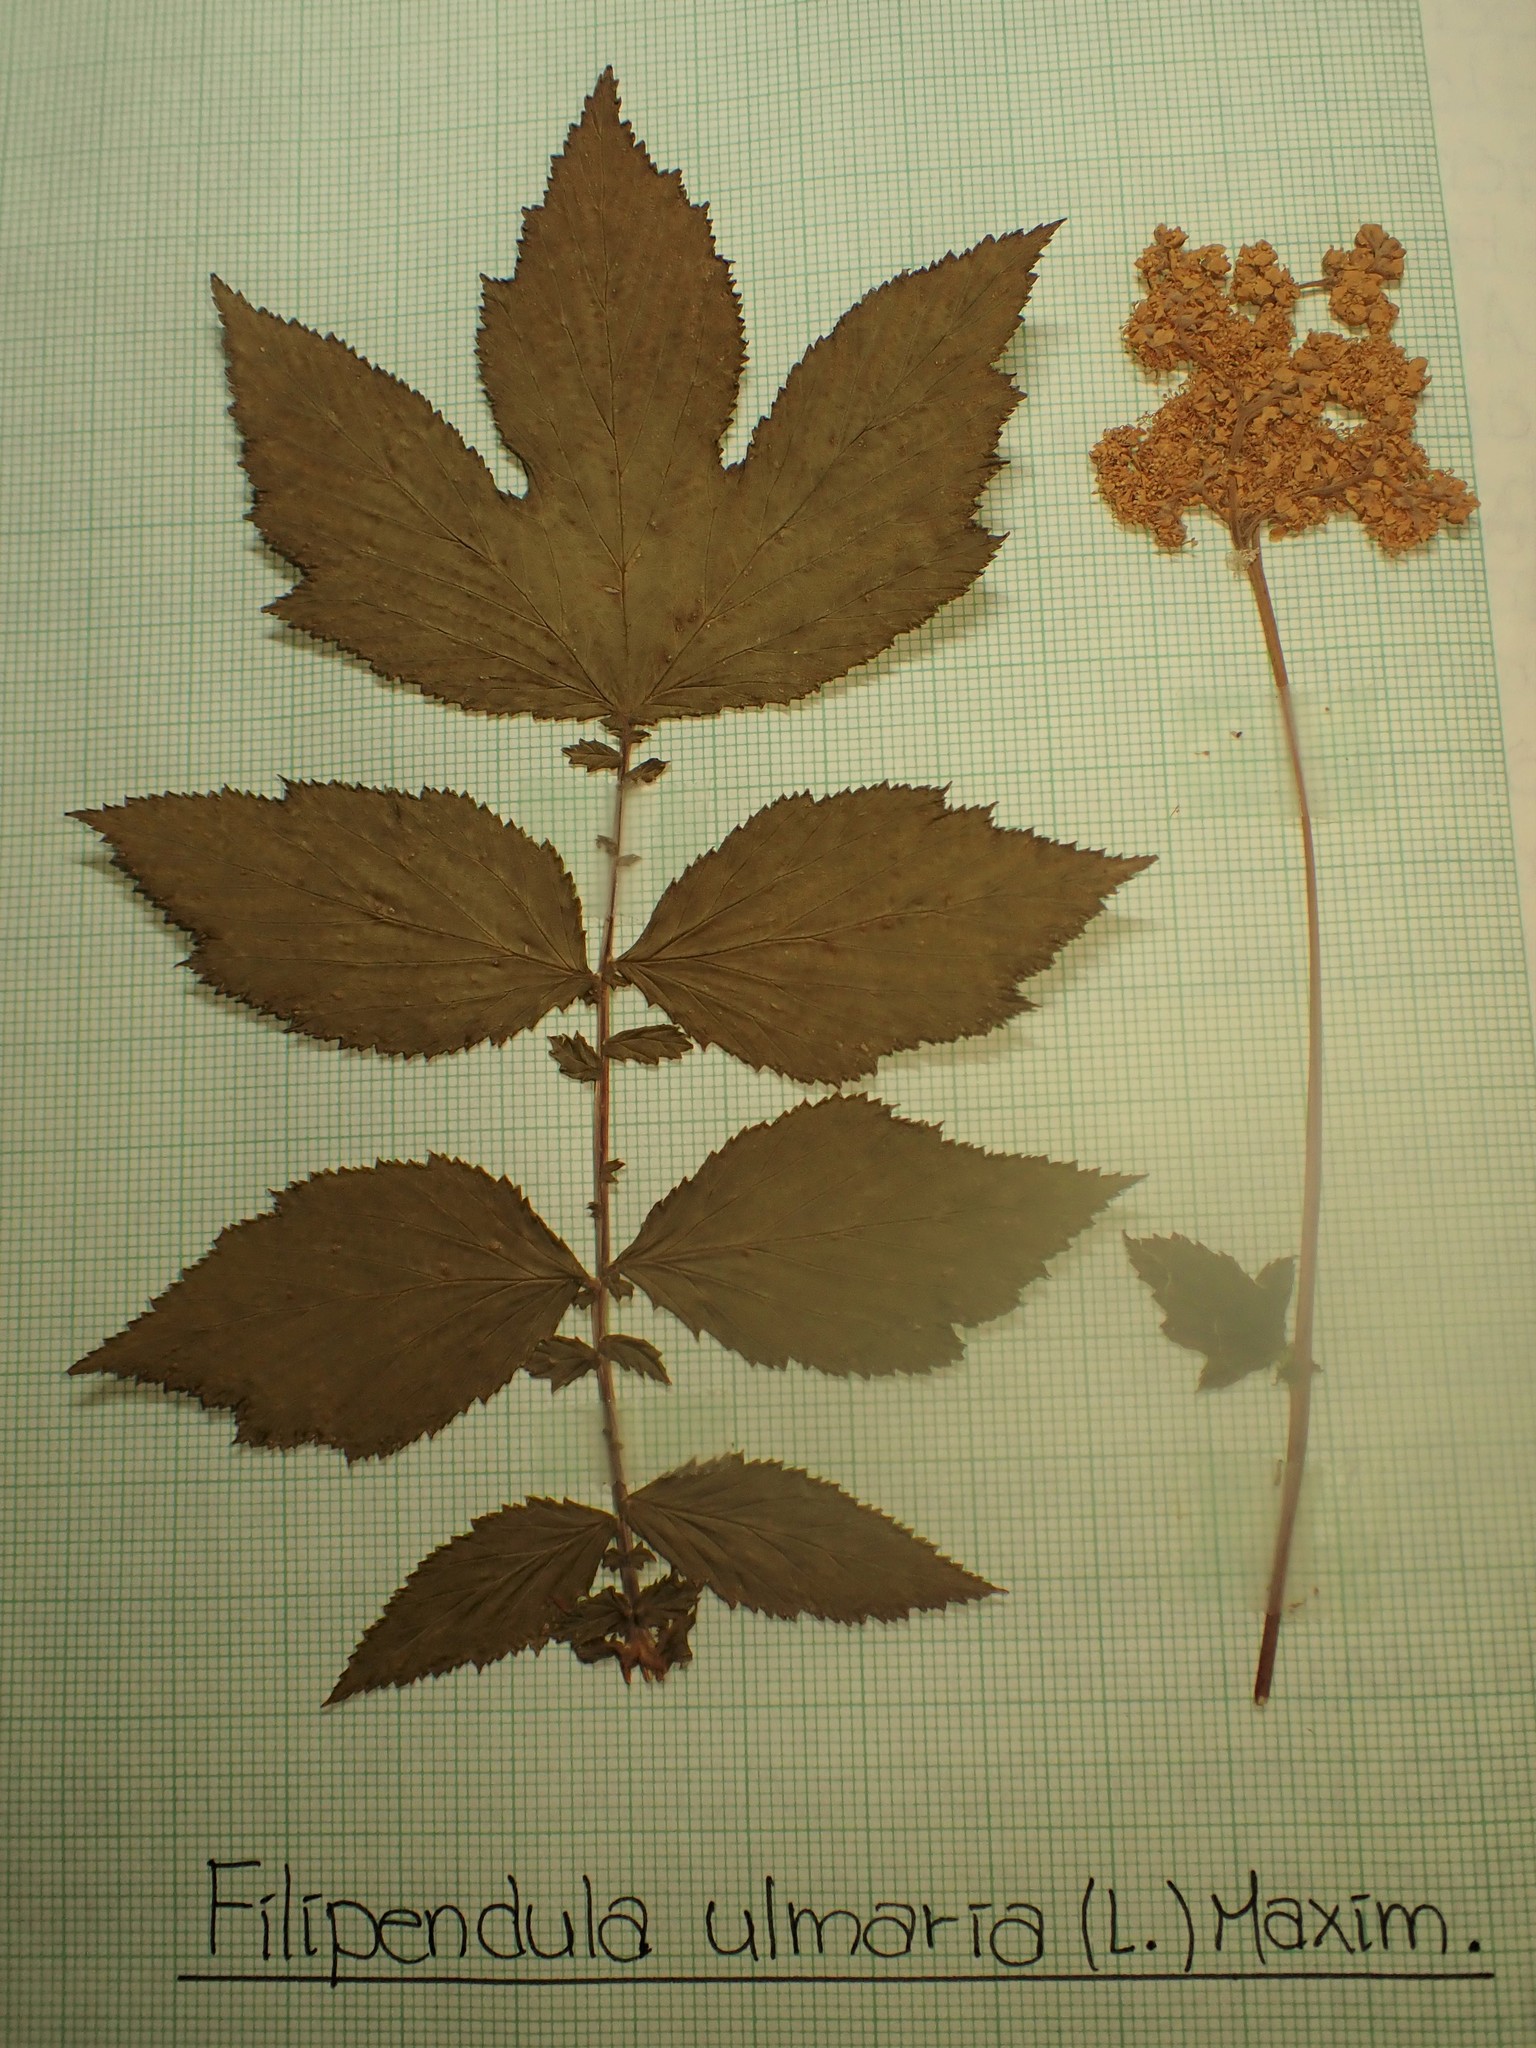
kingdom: Plantae
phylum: Tracheophyta
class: Magnoliopsida
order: Rosales
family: Rosaceae
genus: Filipendula
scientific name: Filipendula ulmaria
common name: Meadowsweet
